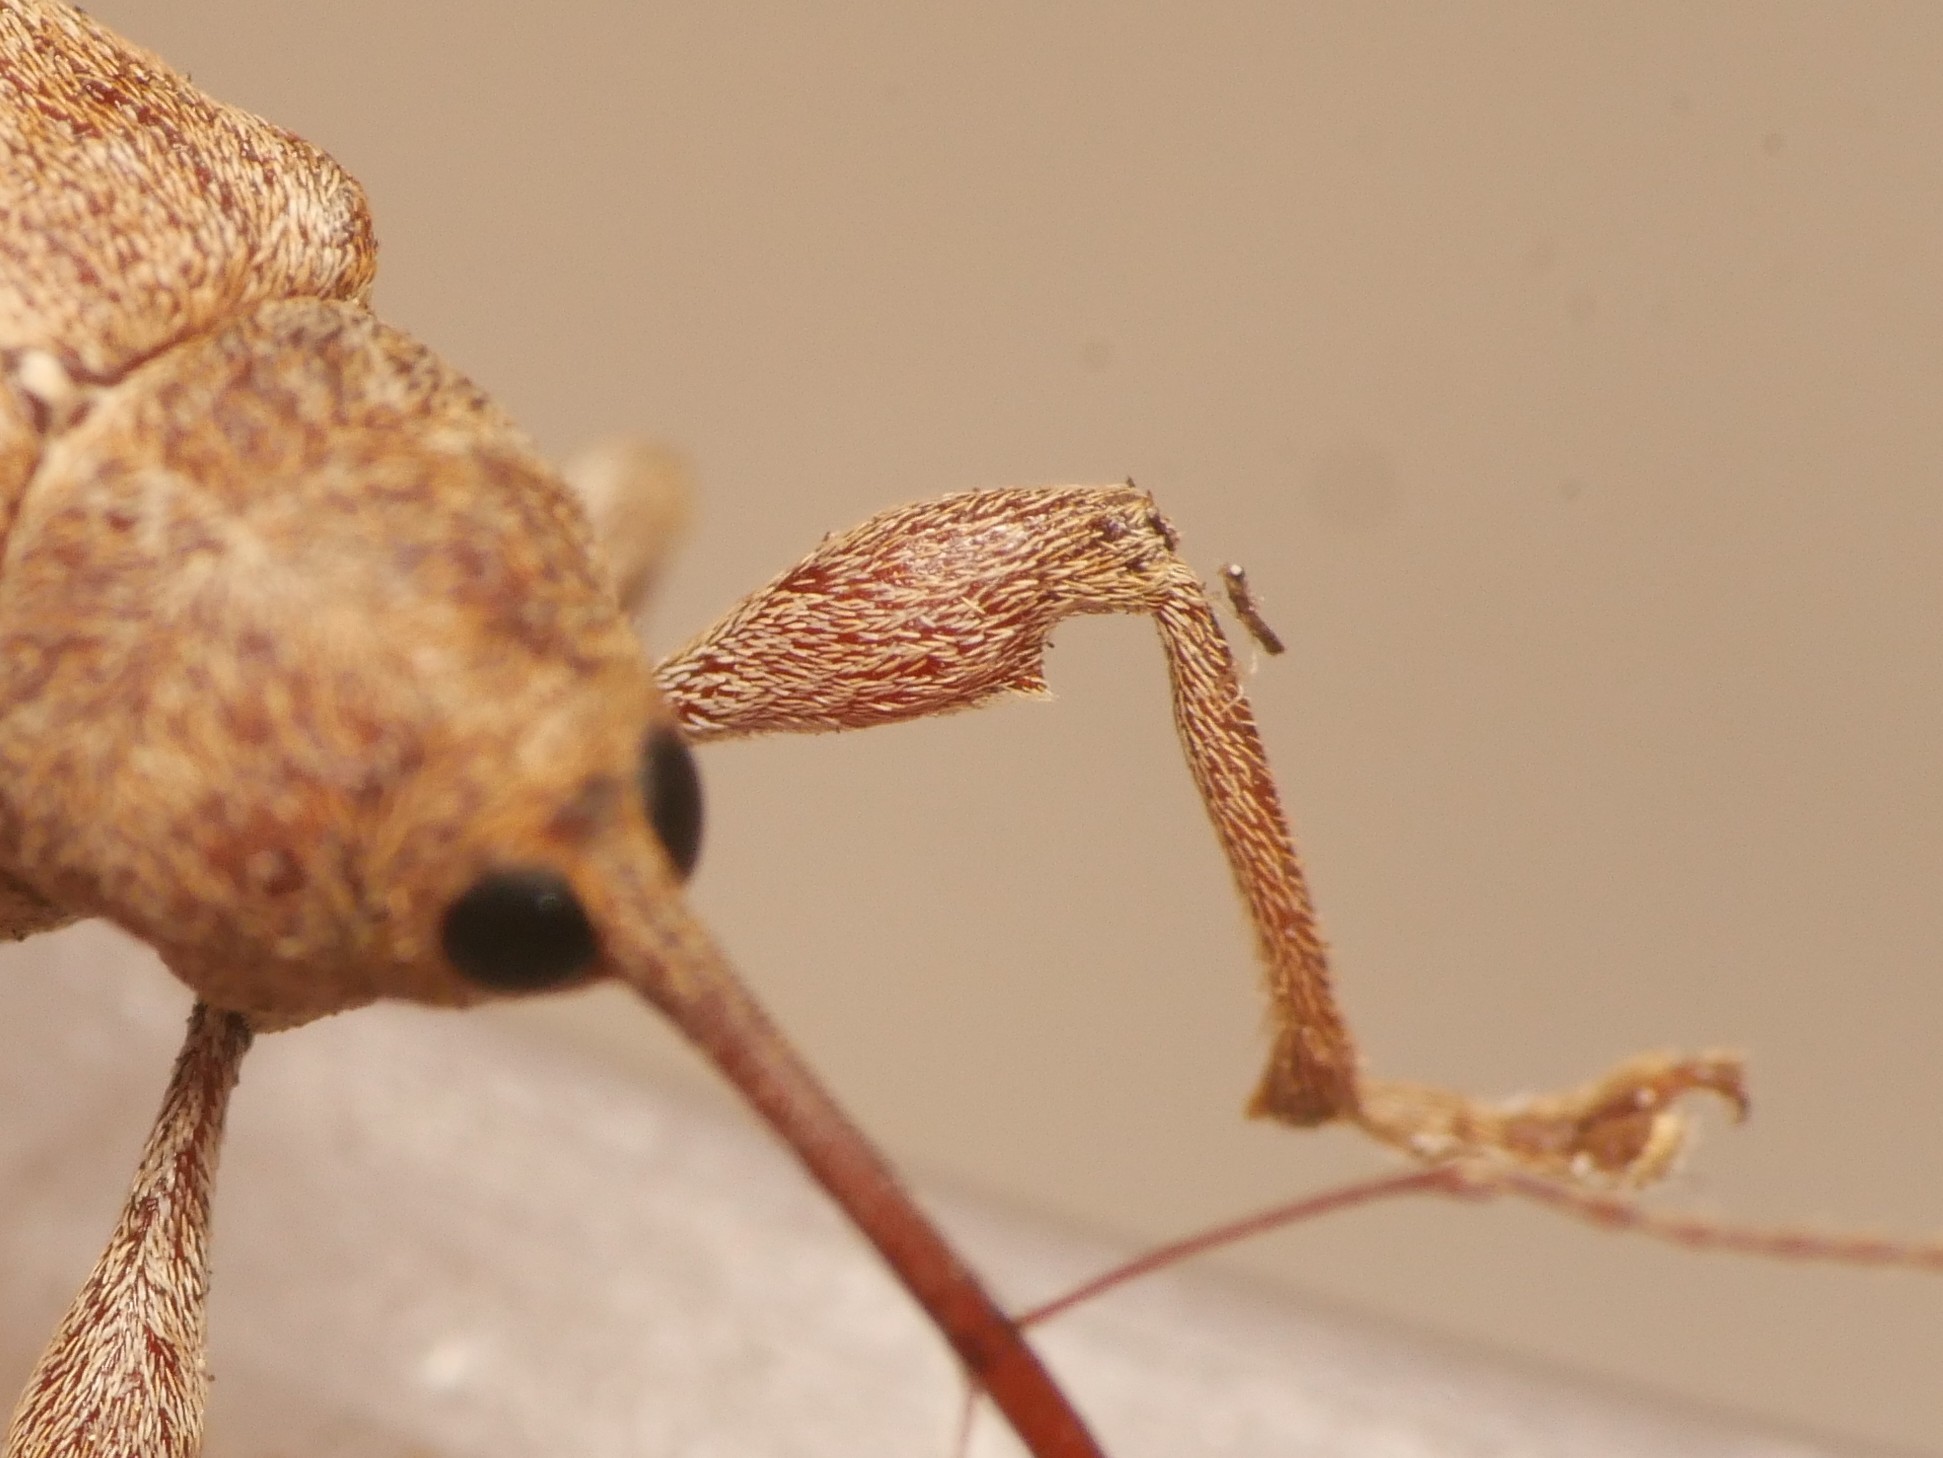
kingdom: Animalia
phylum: Arthropoda
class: Insecta
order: Coleoptera
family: Curculionidae
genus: Curculio
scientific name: Curculio elephas
